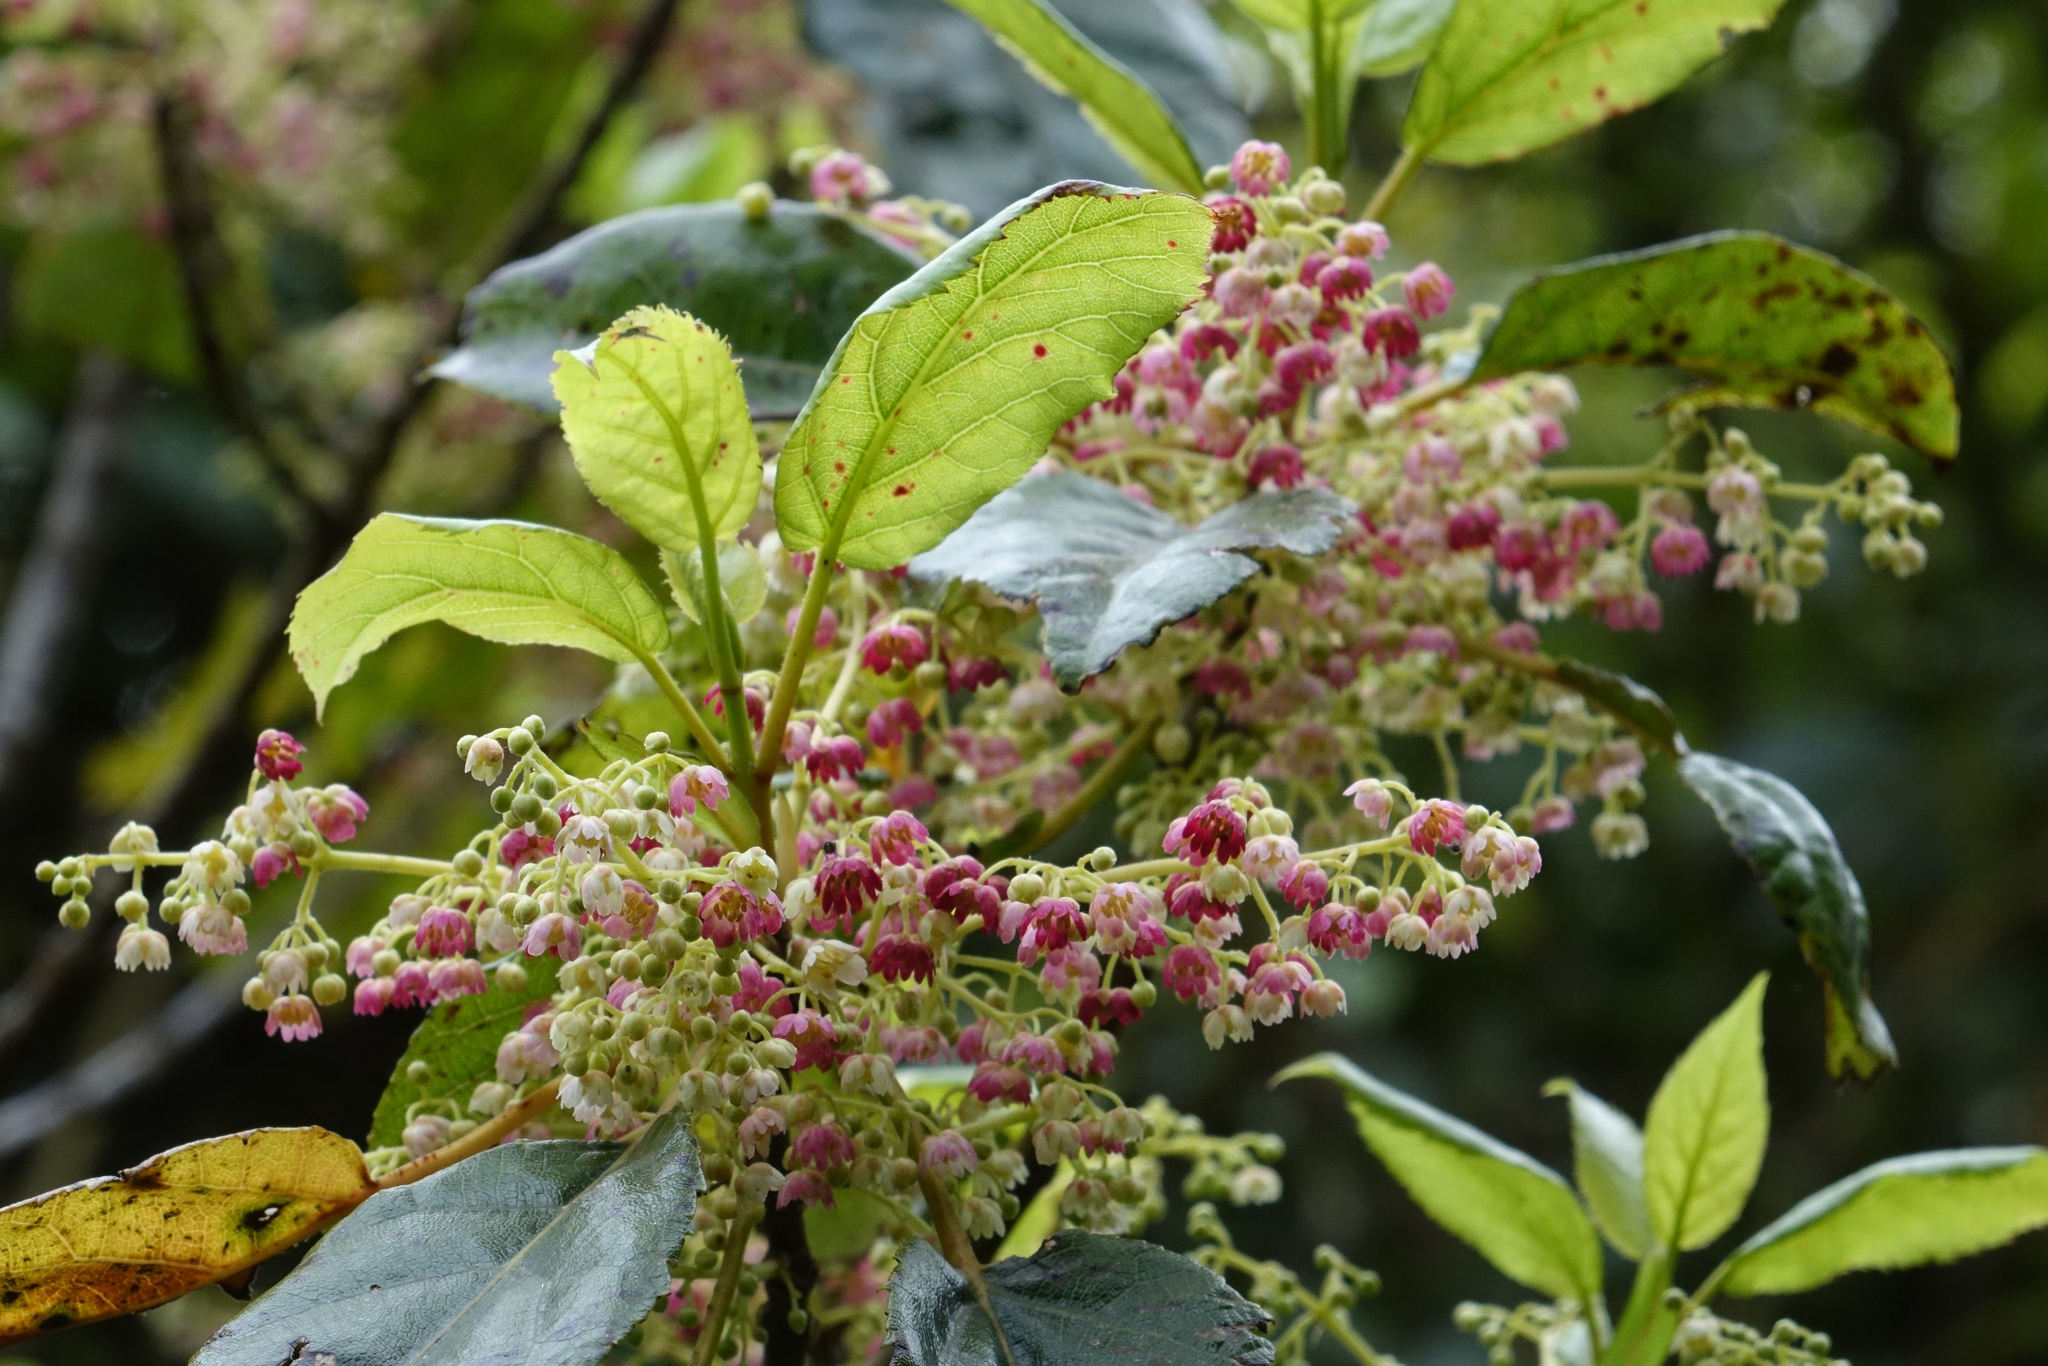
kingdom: Plantae
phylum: Tracheophyta
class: Magnoliopsida
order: Oxalidales
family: Elaeocarpaceae
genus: Aristotelia
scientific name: Aristotelia serrata
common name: New zealand wineberry
